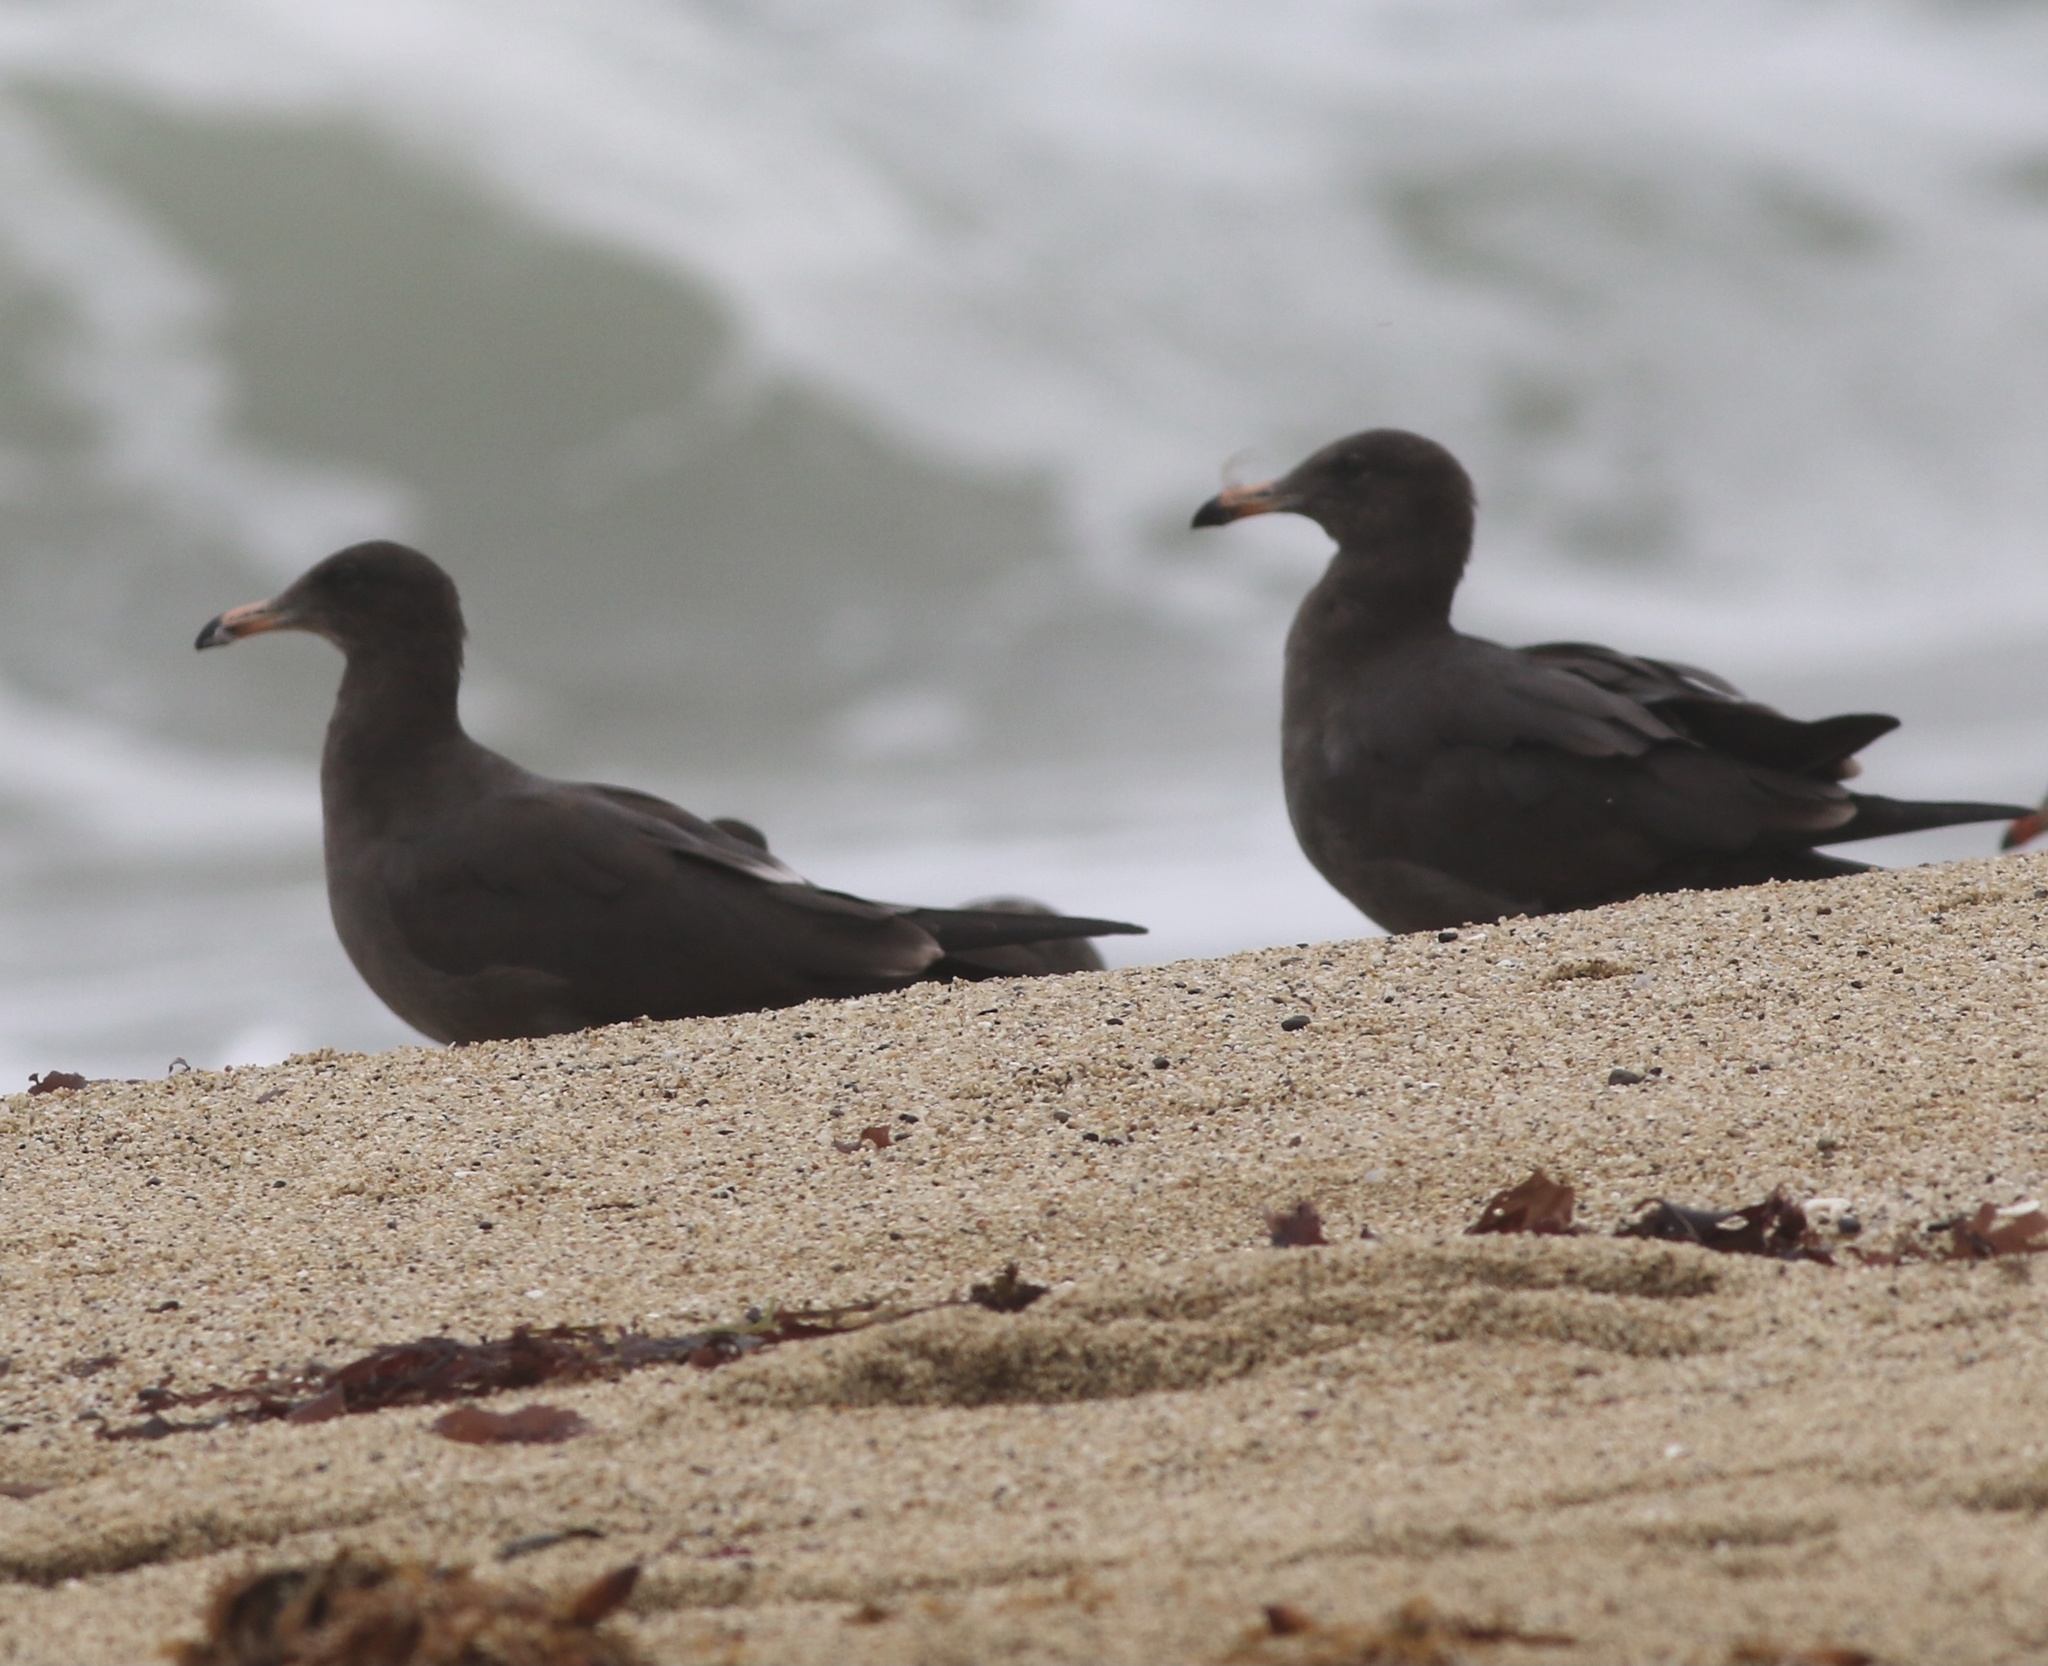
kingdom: Animalia
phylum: Chordata
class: Aves
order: Charadriiformes
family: Laridae
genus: Larus
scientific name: Larus heermanni
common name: Heermann's gull
